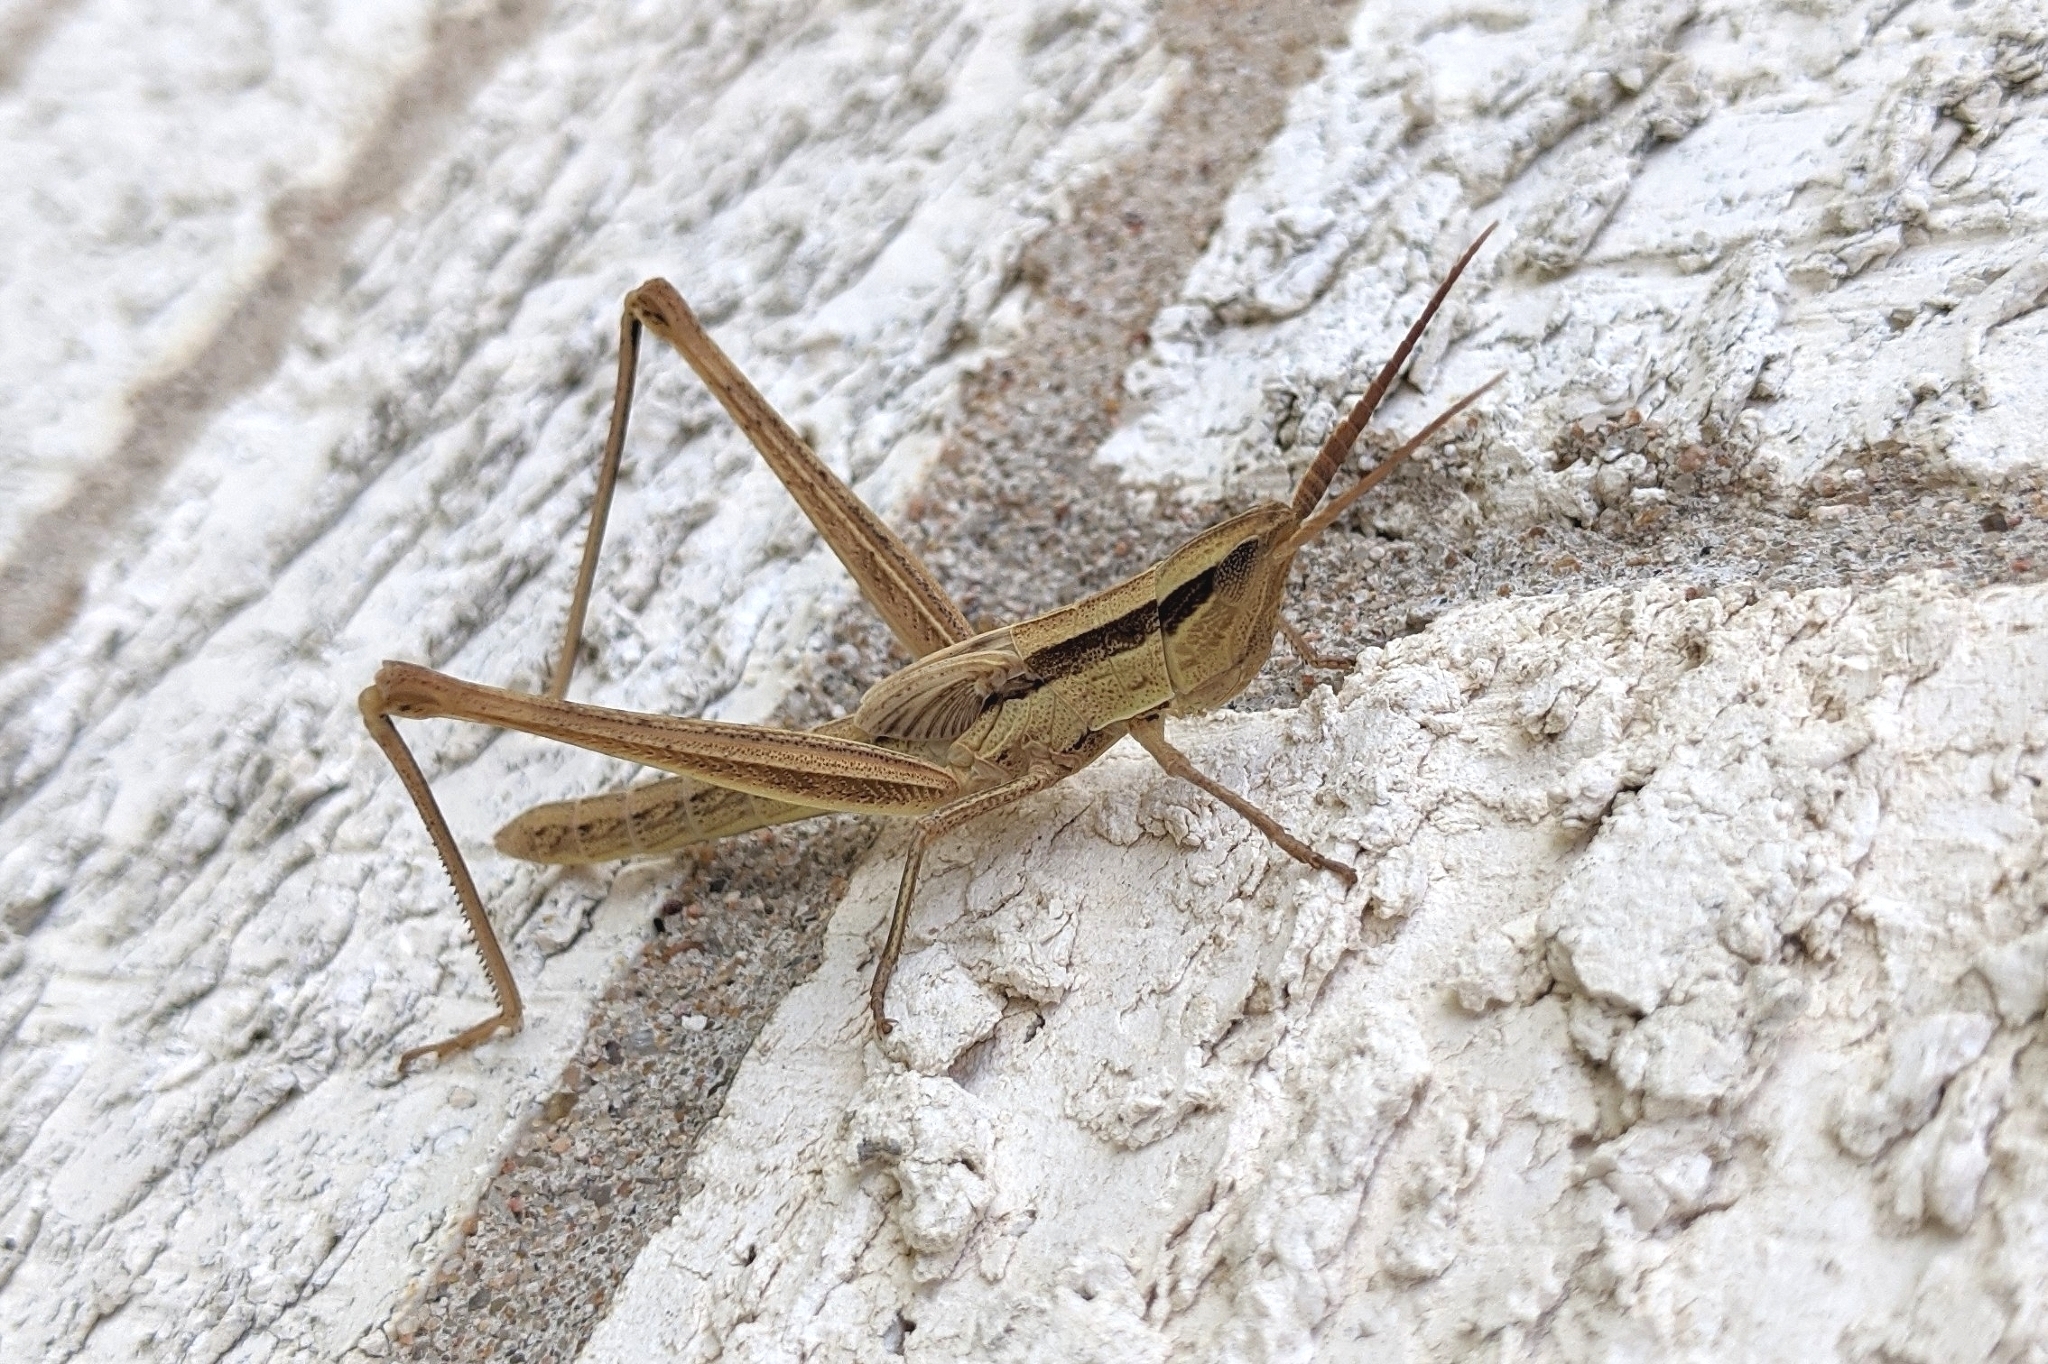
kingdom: Animalia
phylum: Arthropoda
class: Insecta
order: Orthoptera
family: Acrididae
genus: Mermiria
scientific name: Mermiria bivittata
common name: Two-striped mermiria grasshopper
